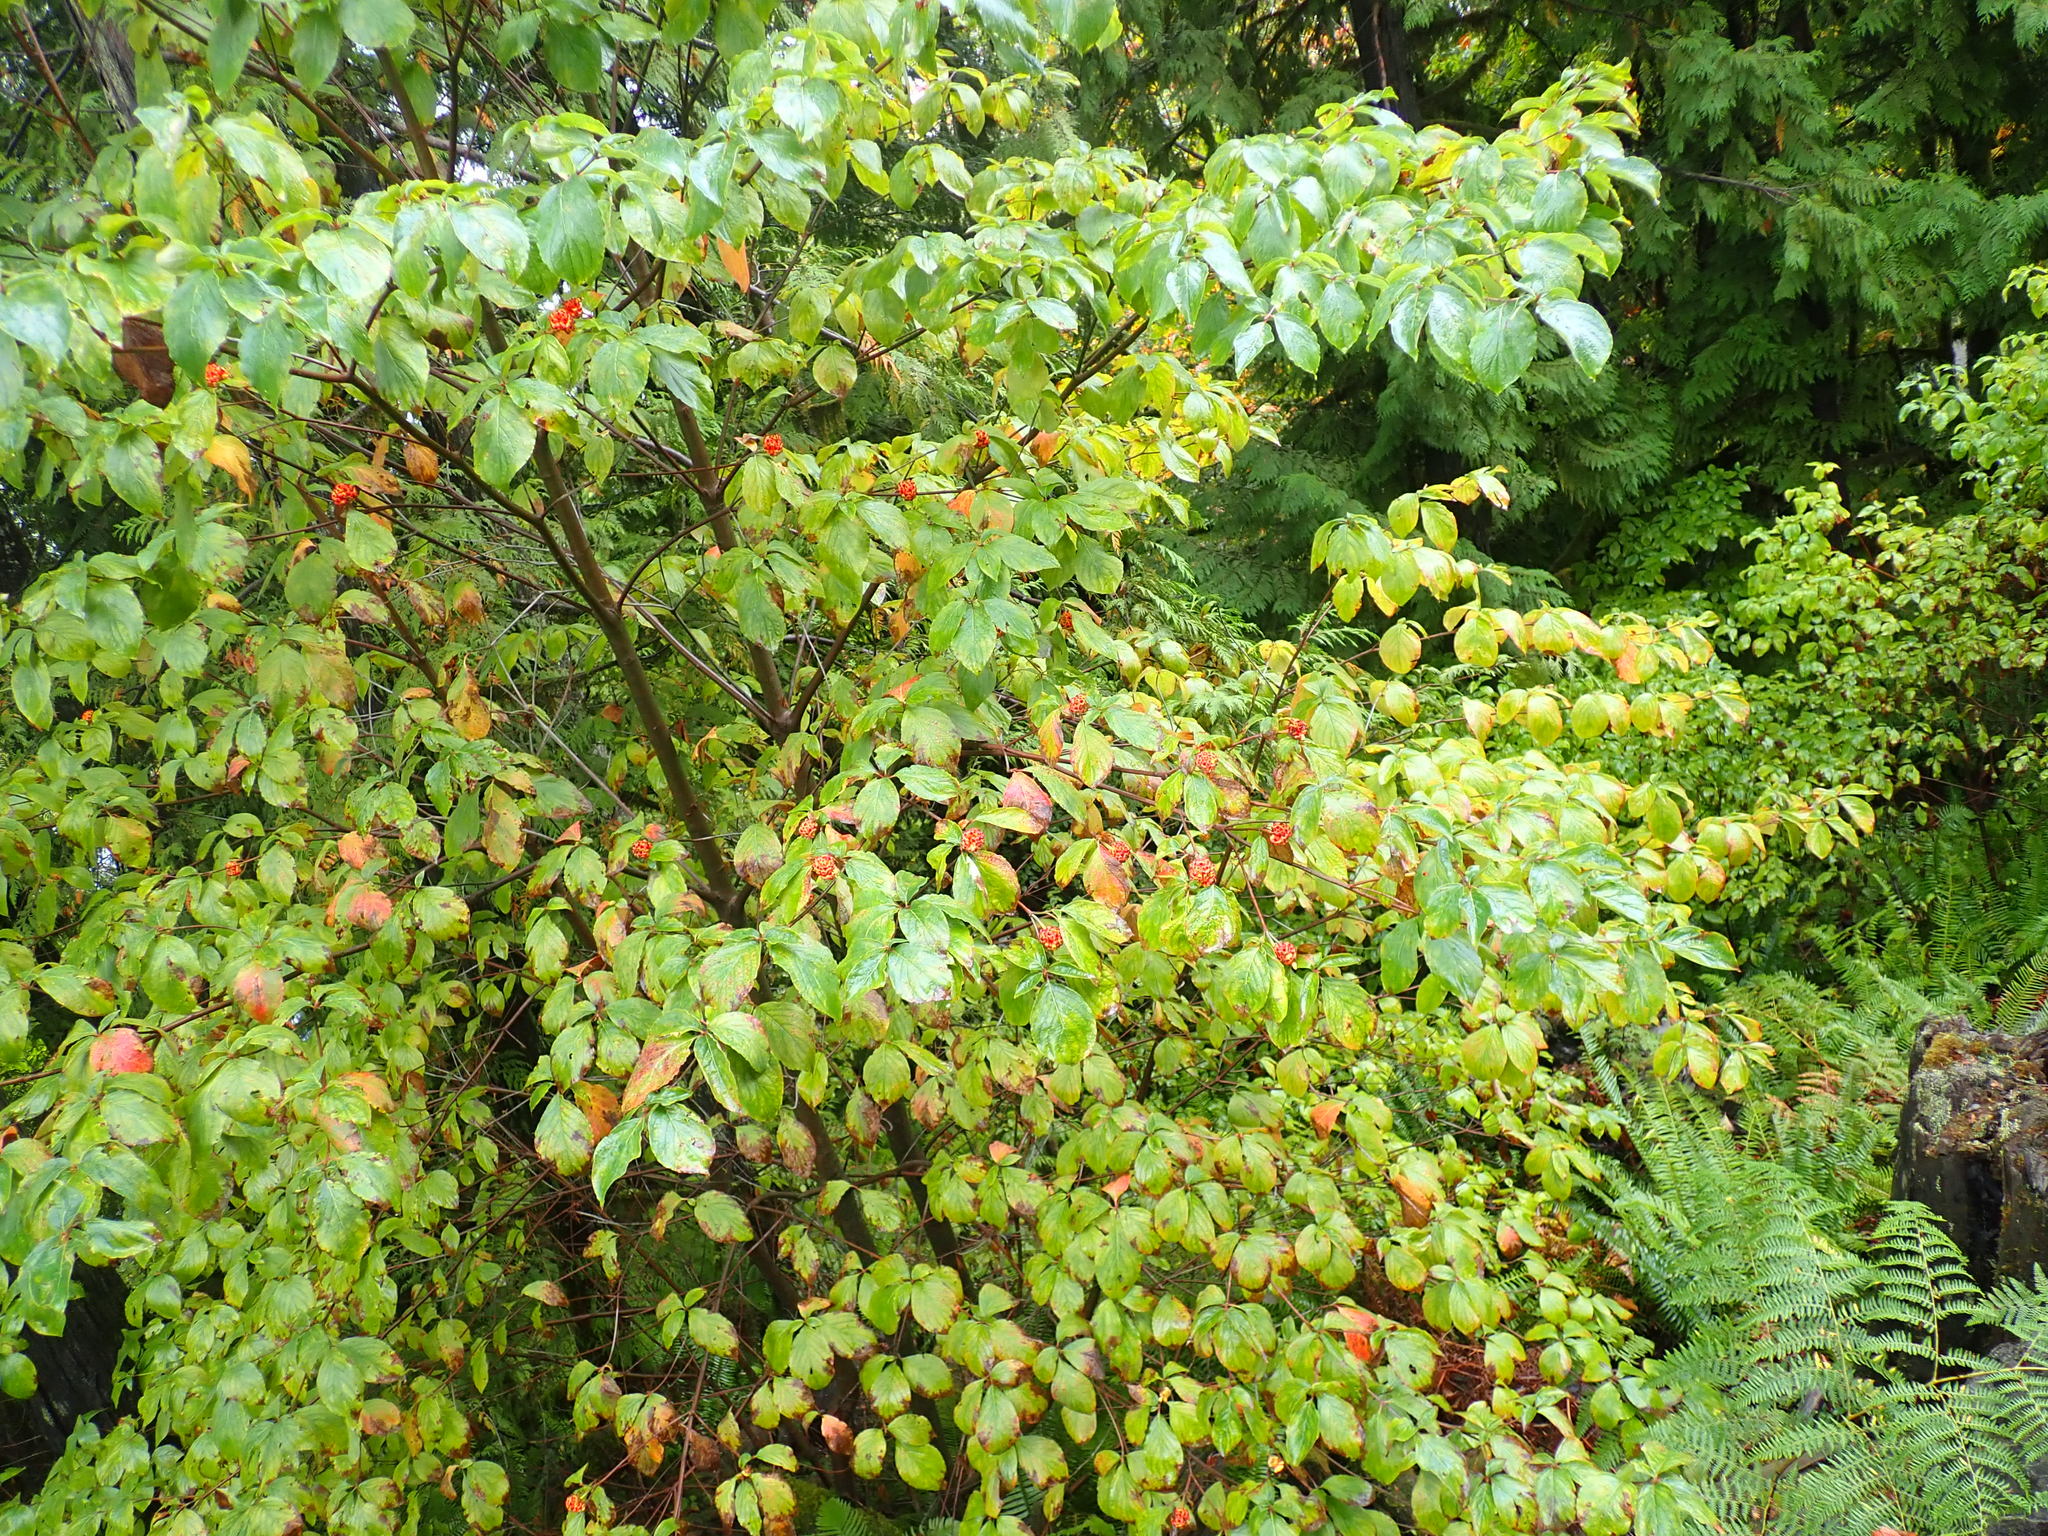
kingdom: Plantae
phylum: Tracheophyta
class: Magnoliopsida
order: Cornales
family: Cornaceae
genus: Cornus
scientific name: Cornus nuttallii
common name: Pacific dogwood
